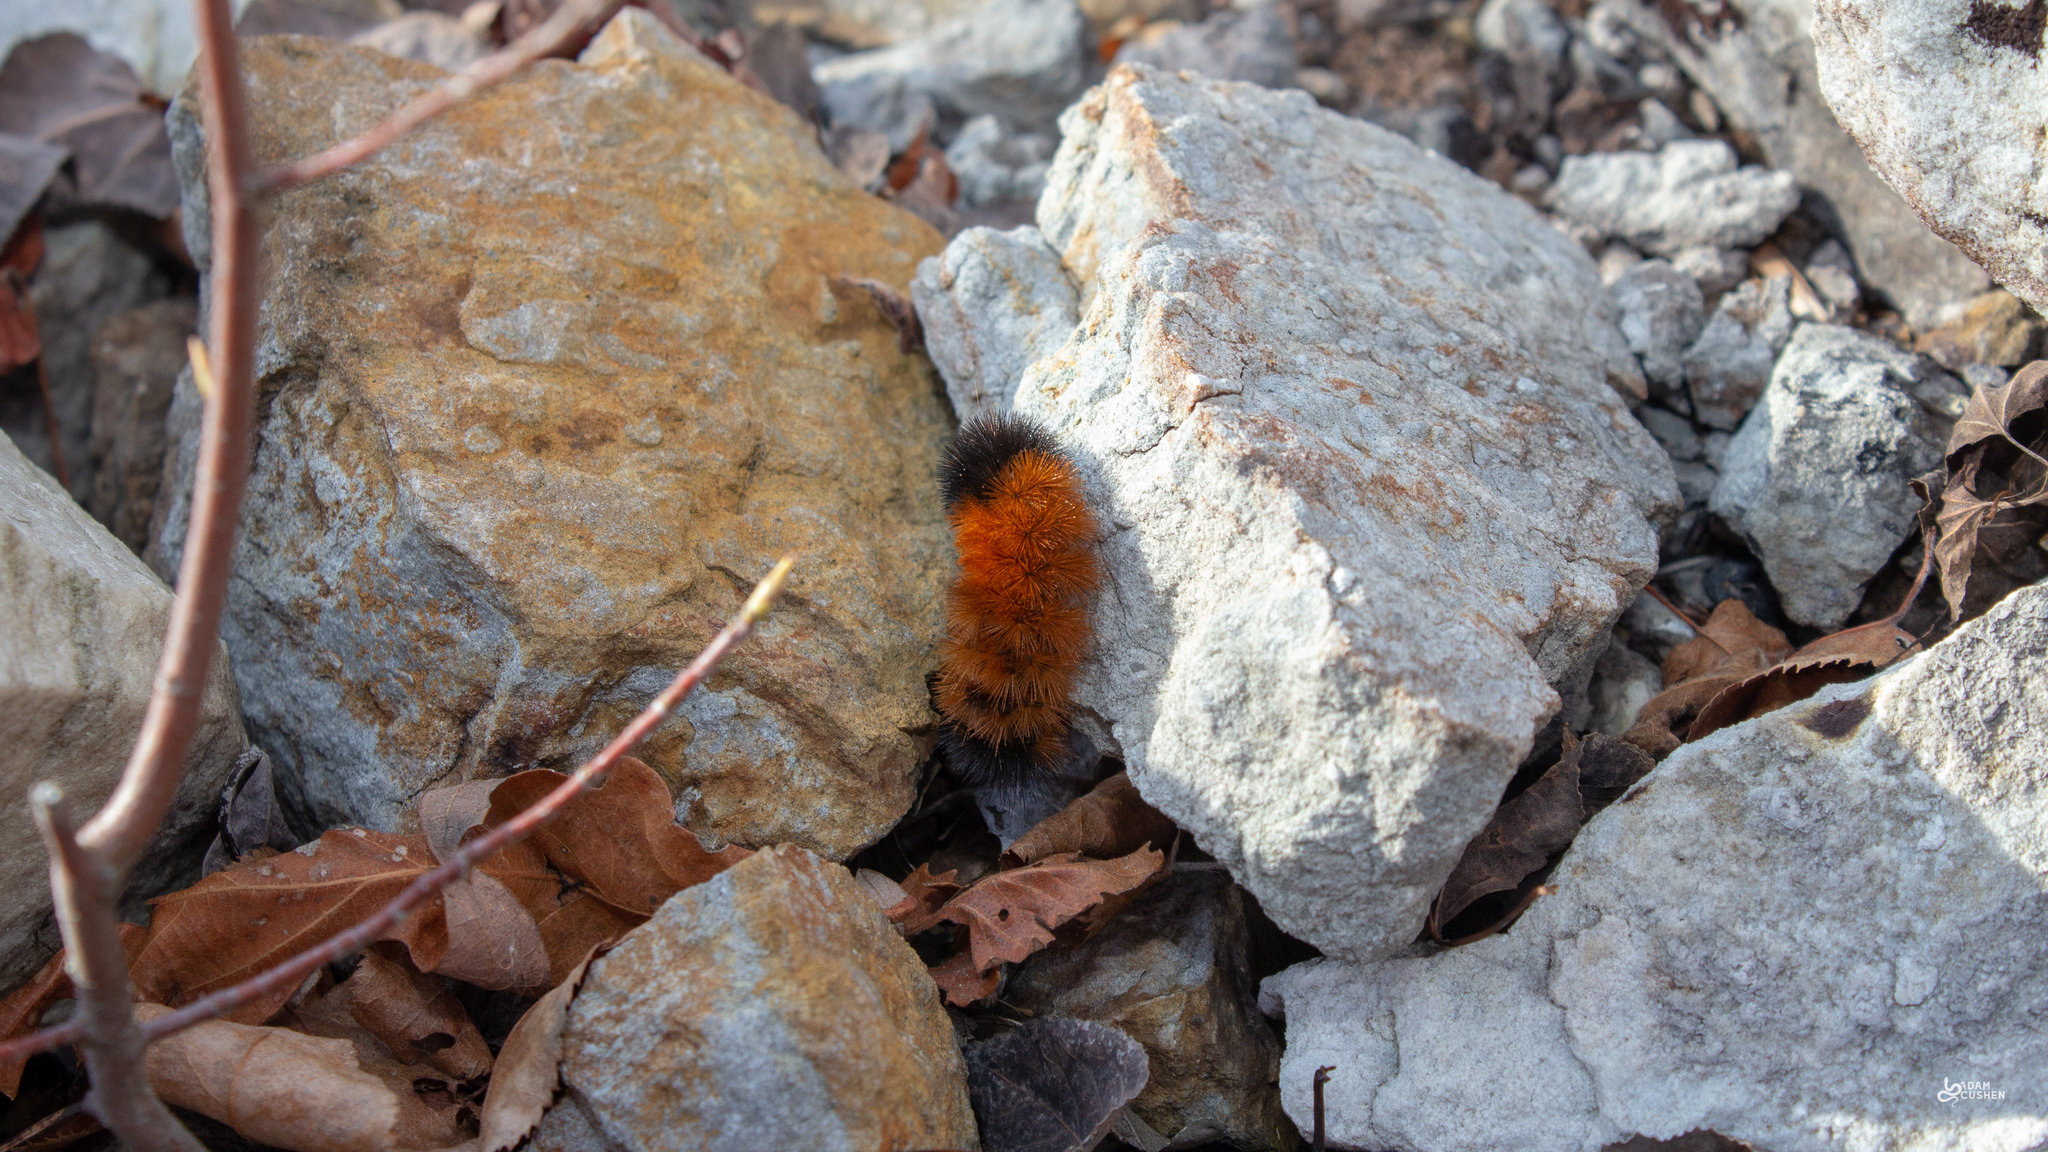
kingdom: Animalia
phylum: Arthropoda
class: Insecta
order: Lepidoptera
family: Erebidae
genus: Pyrrharctia
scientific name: Pyrrharctia isabella
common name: Isabella tiger moth
